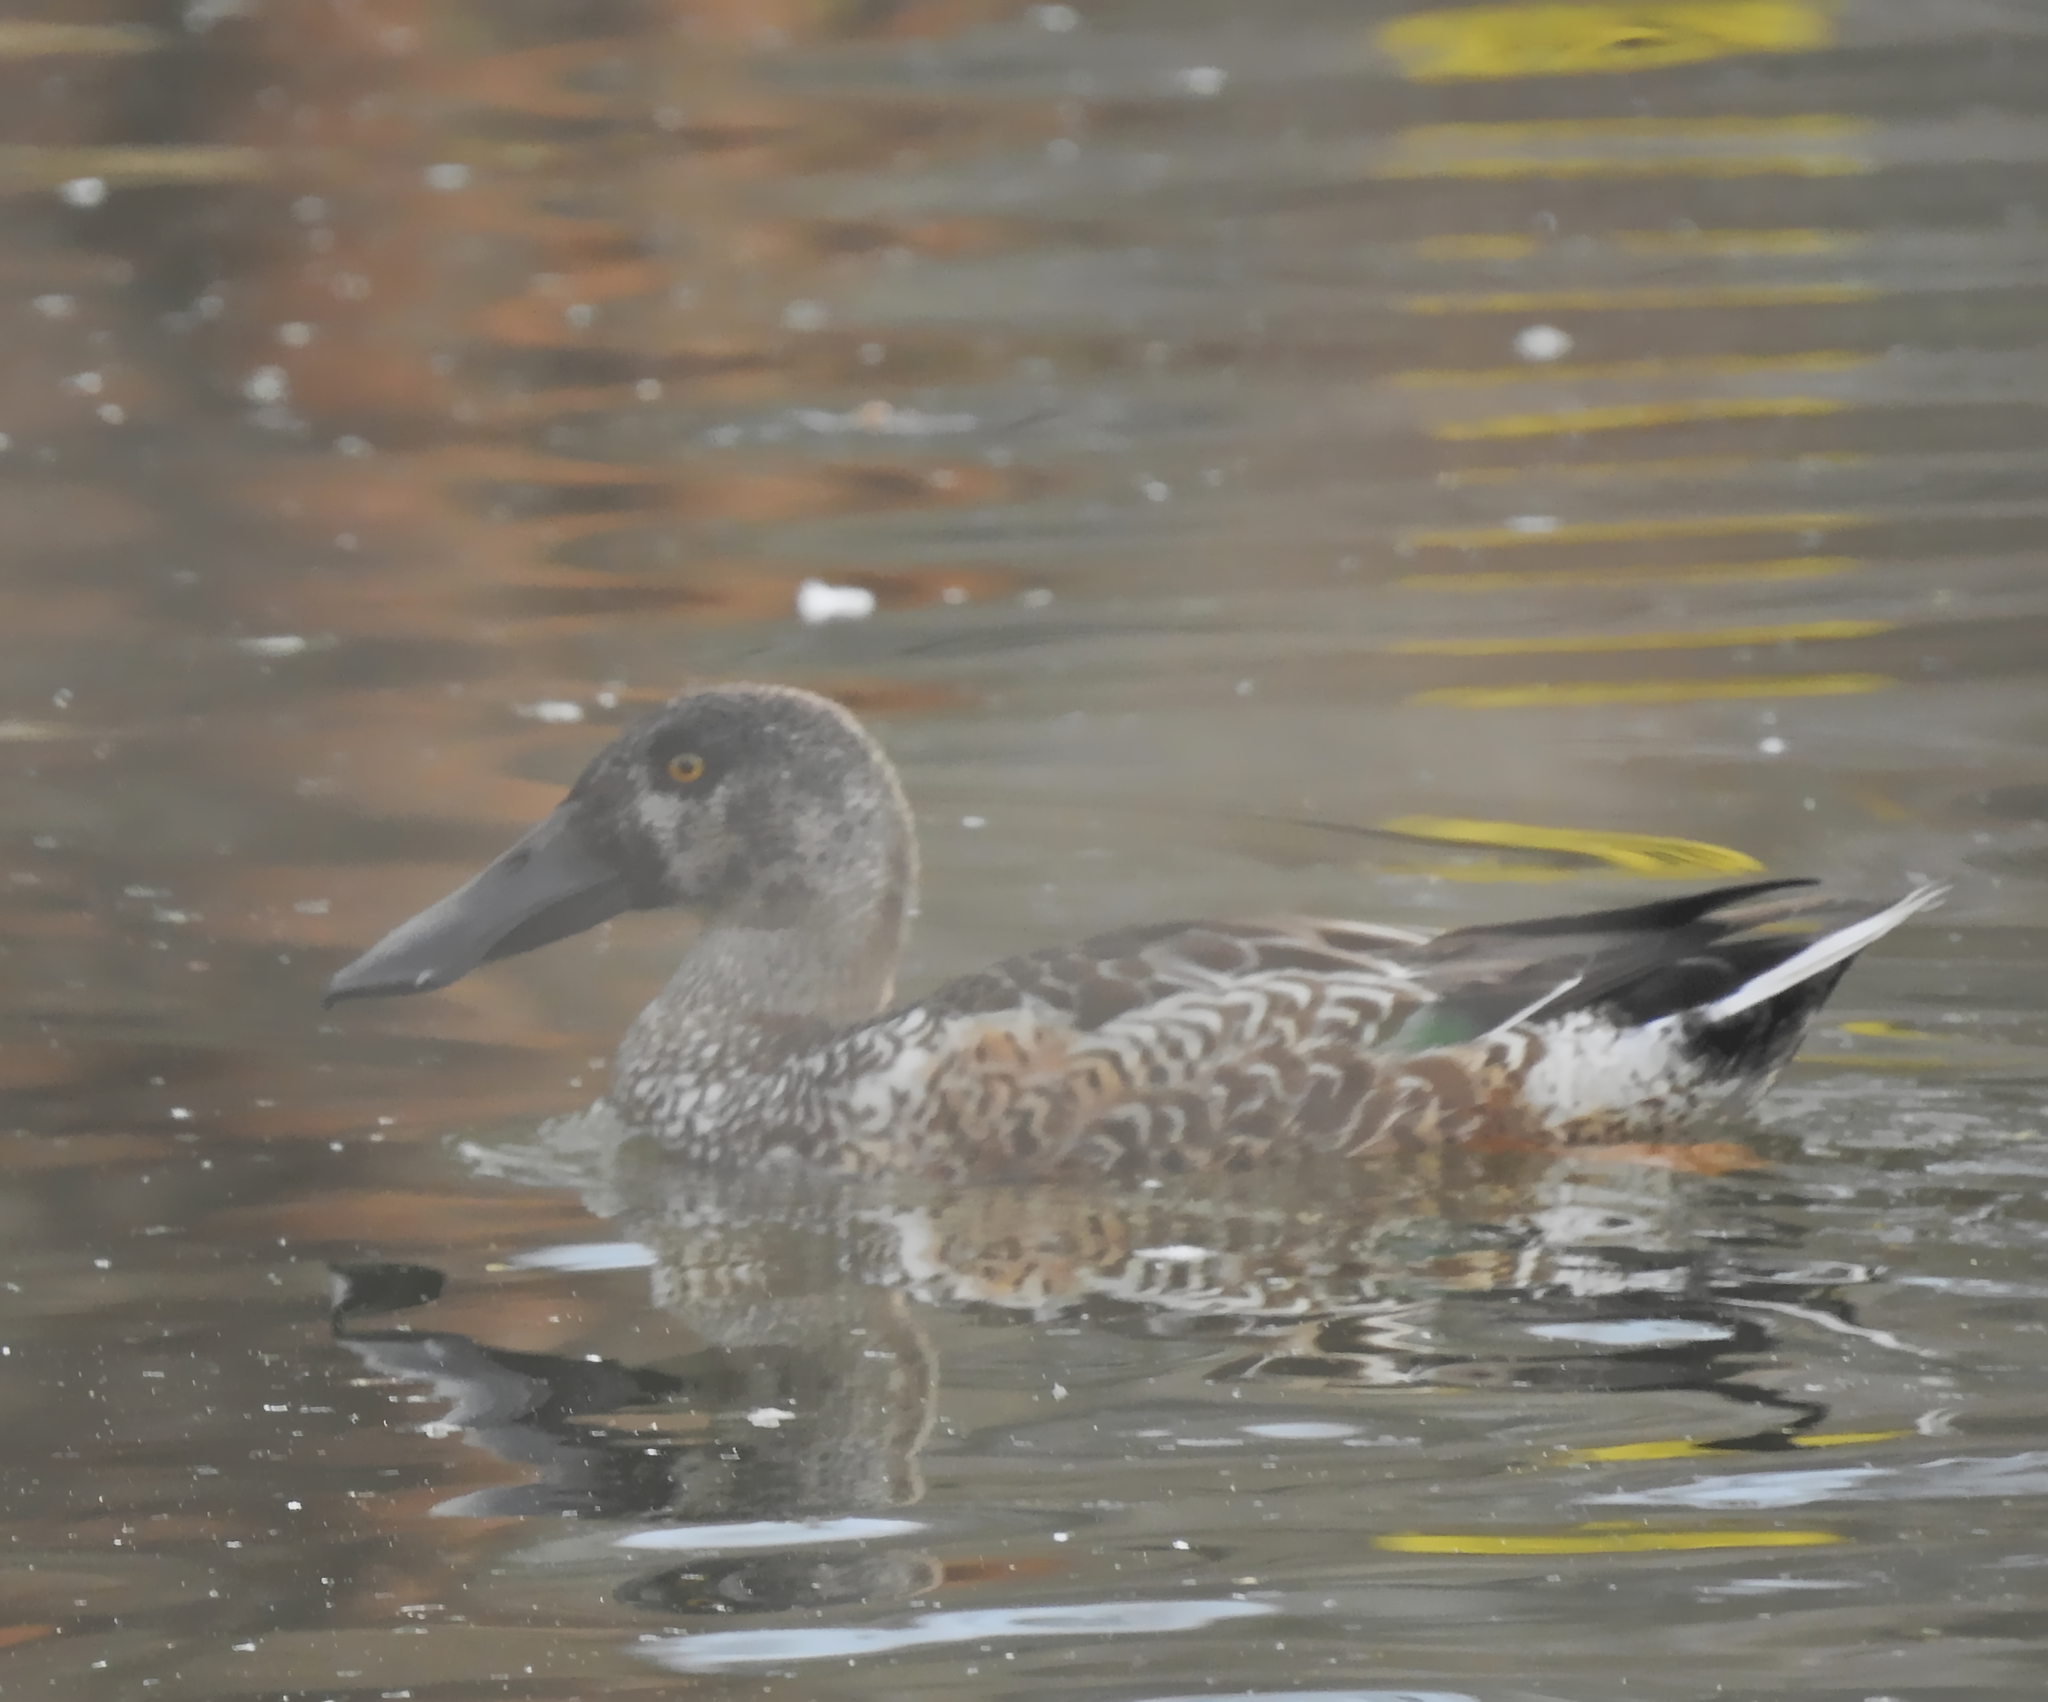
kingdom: Animalia
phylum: Chordata
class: Aves
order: Anseriformes
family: Anatidae
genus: Spatula
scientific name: Spatula clypeata
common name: Northern shoveler
